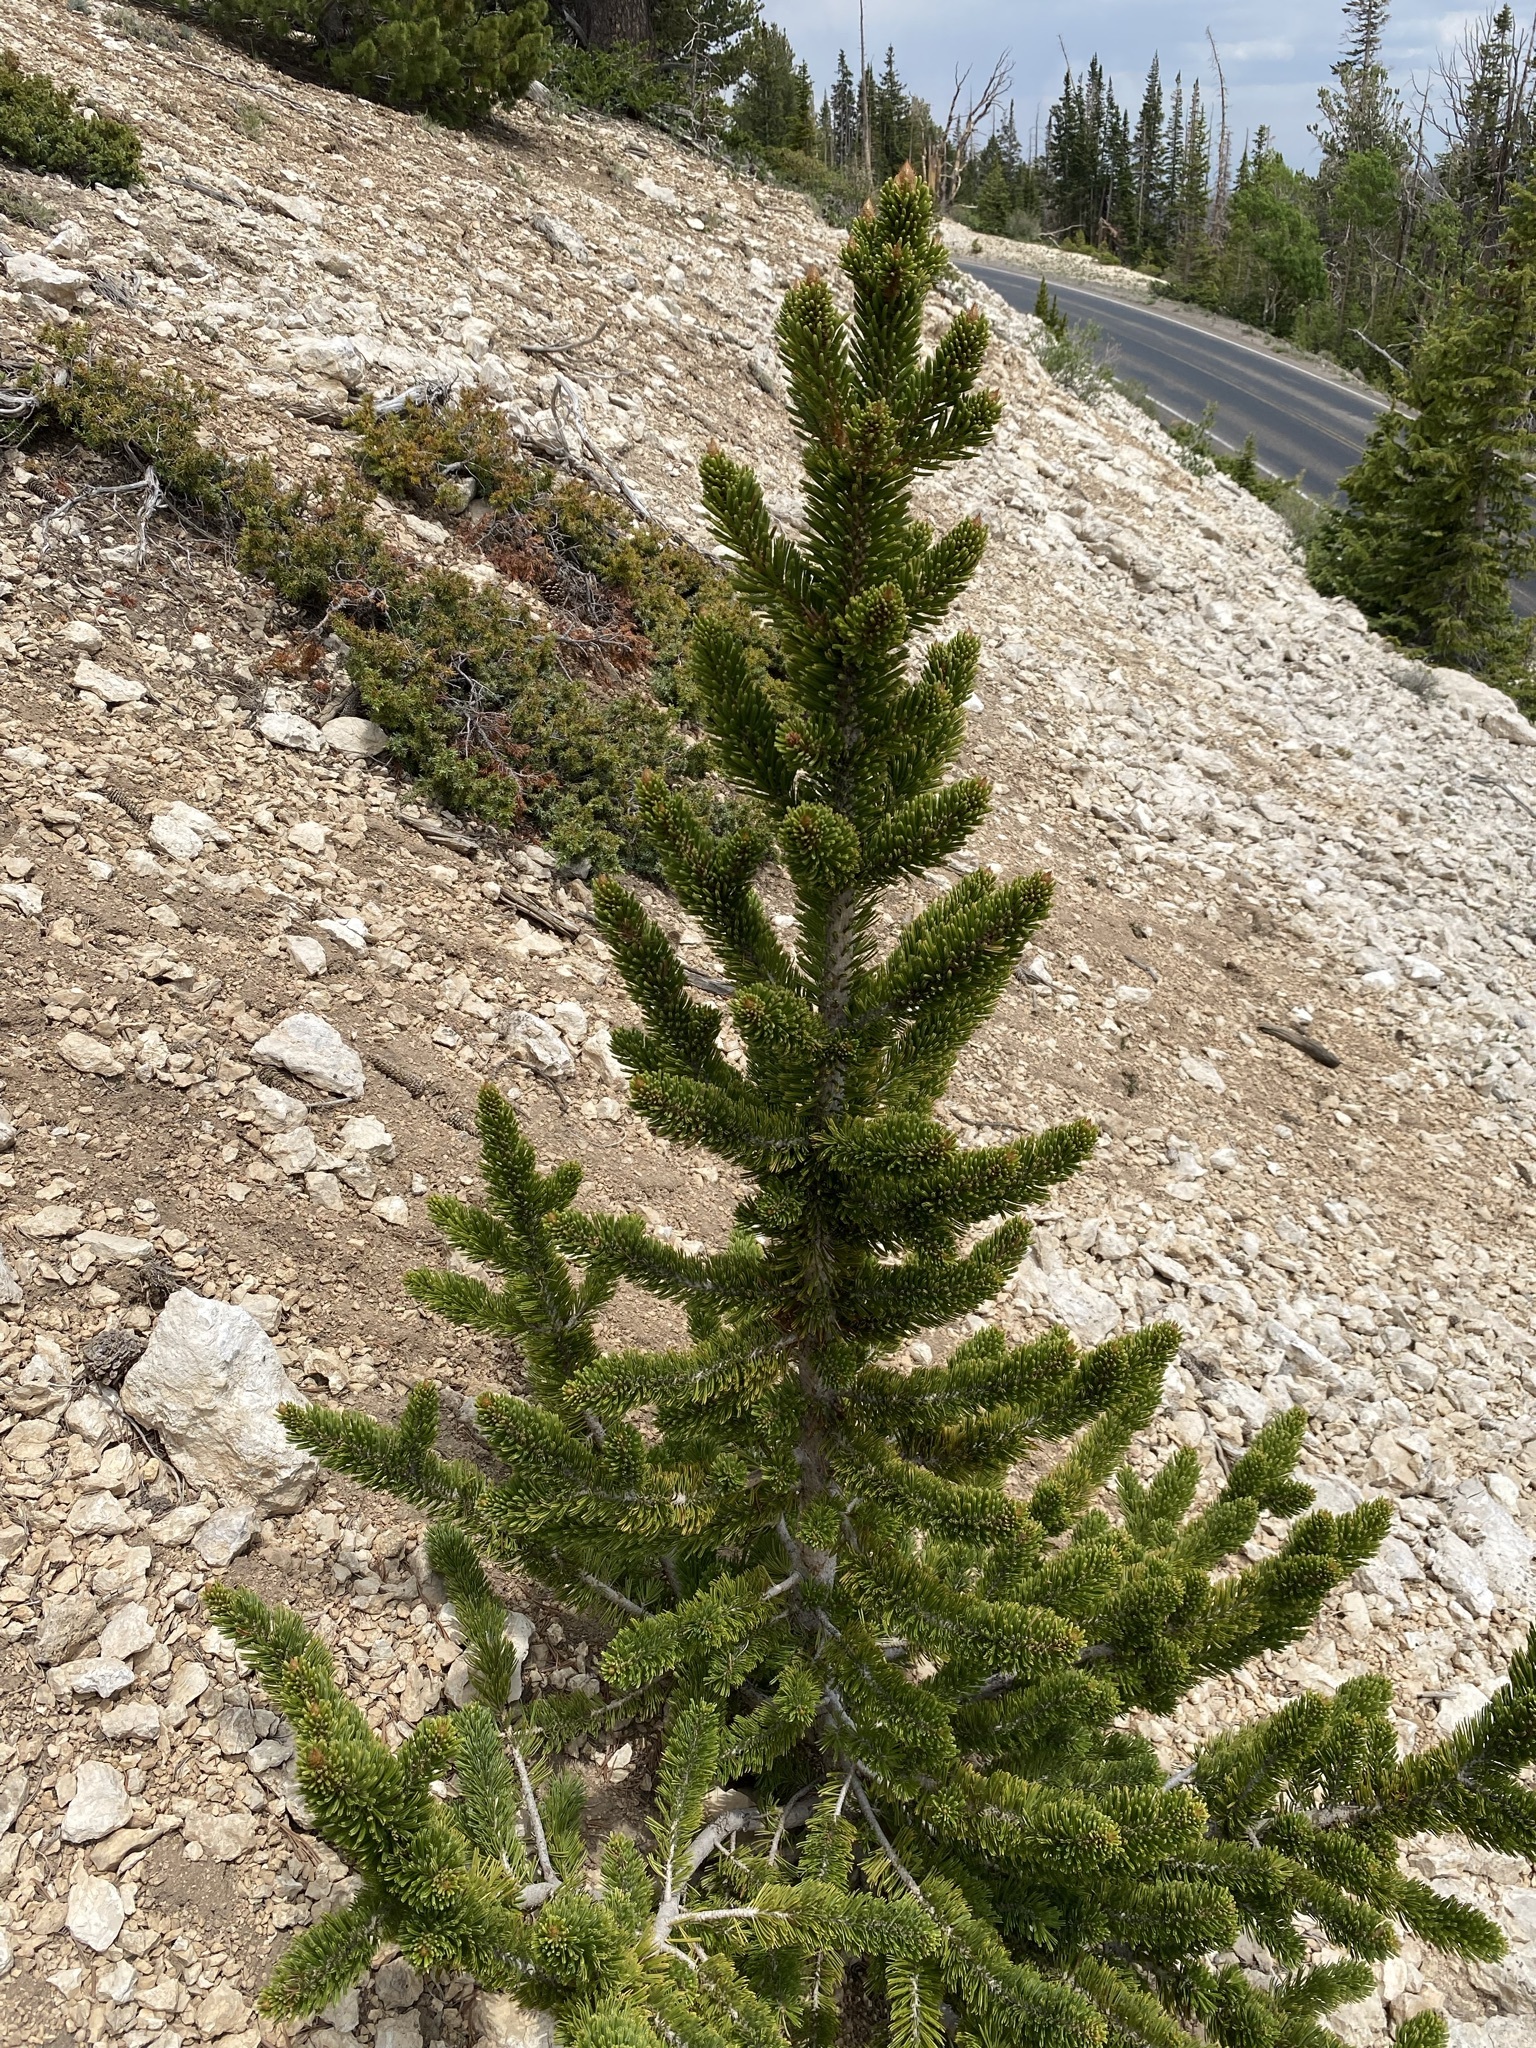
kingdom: Plantae
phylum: Tracheophyta
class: Pinopsida
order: Pinales
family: Pinaceae
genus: Pinus
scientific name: Pinus longaeva
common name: Intermountain bristlecone pine
